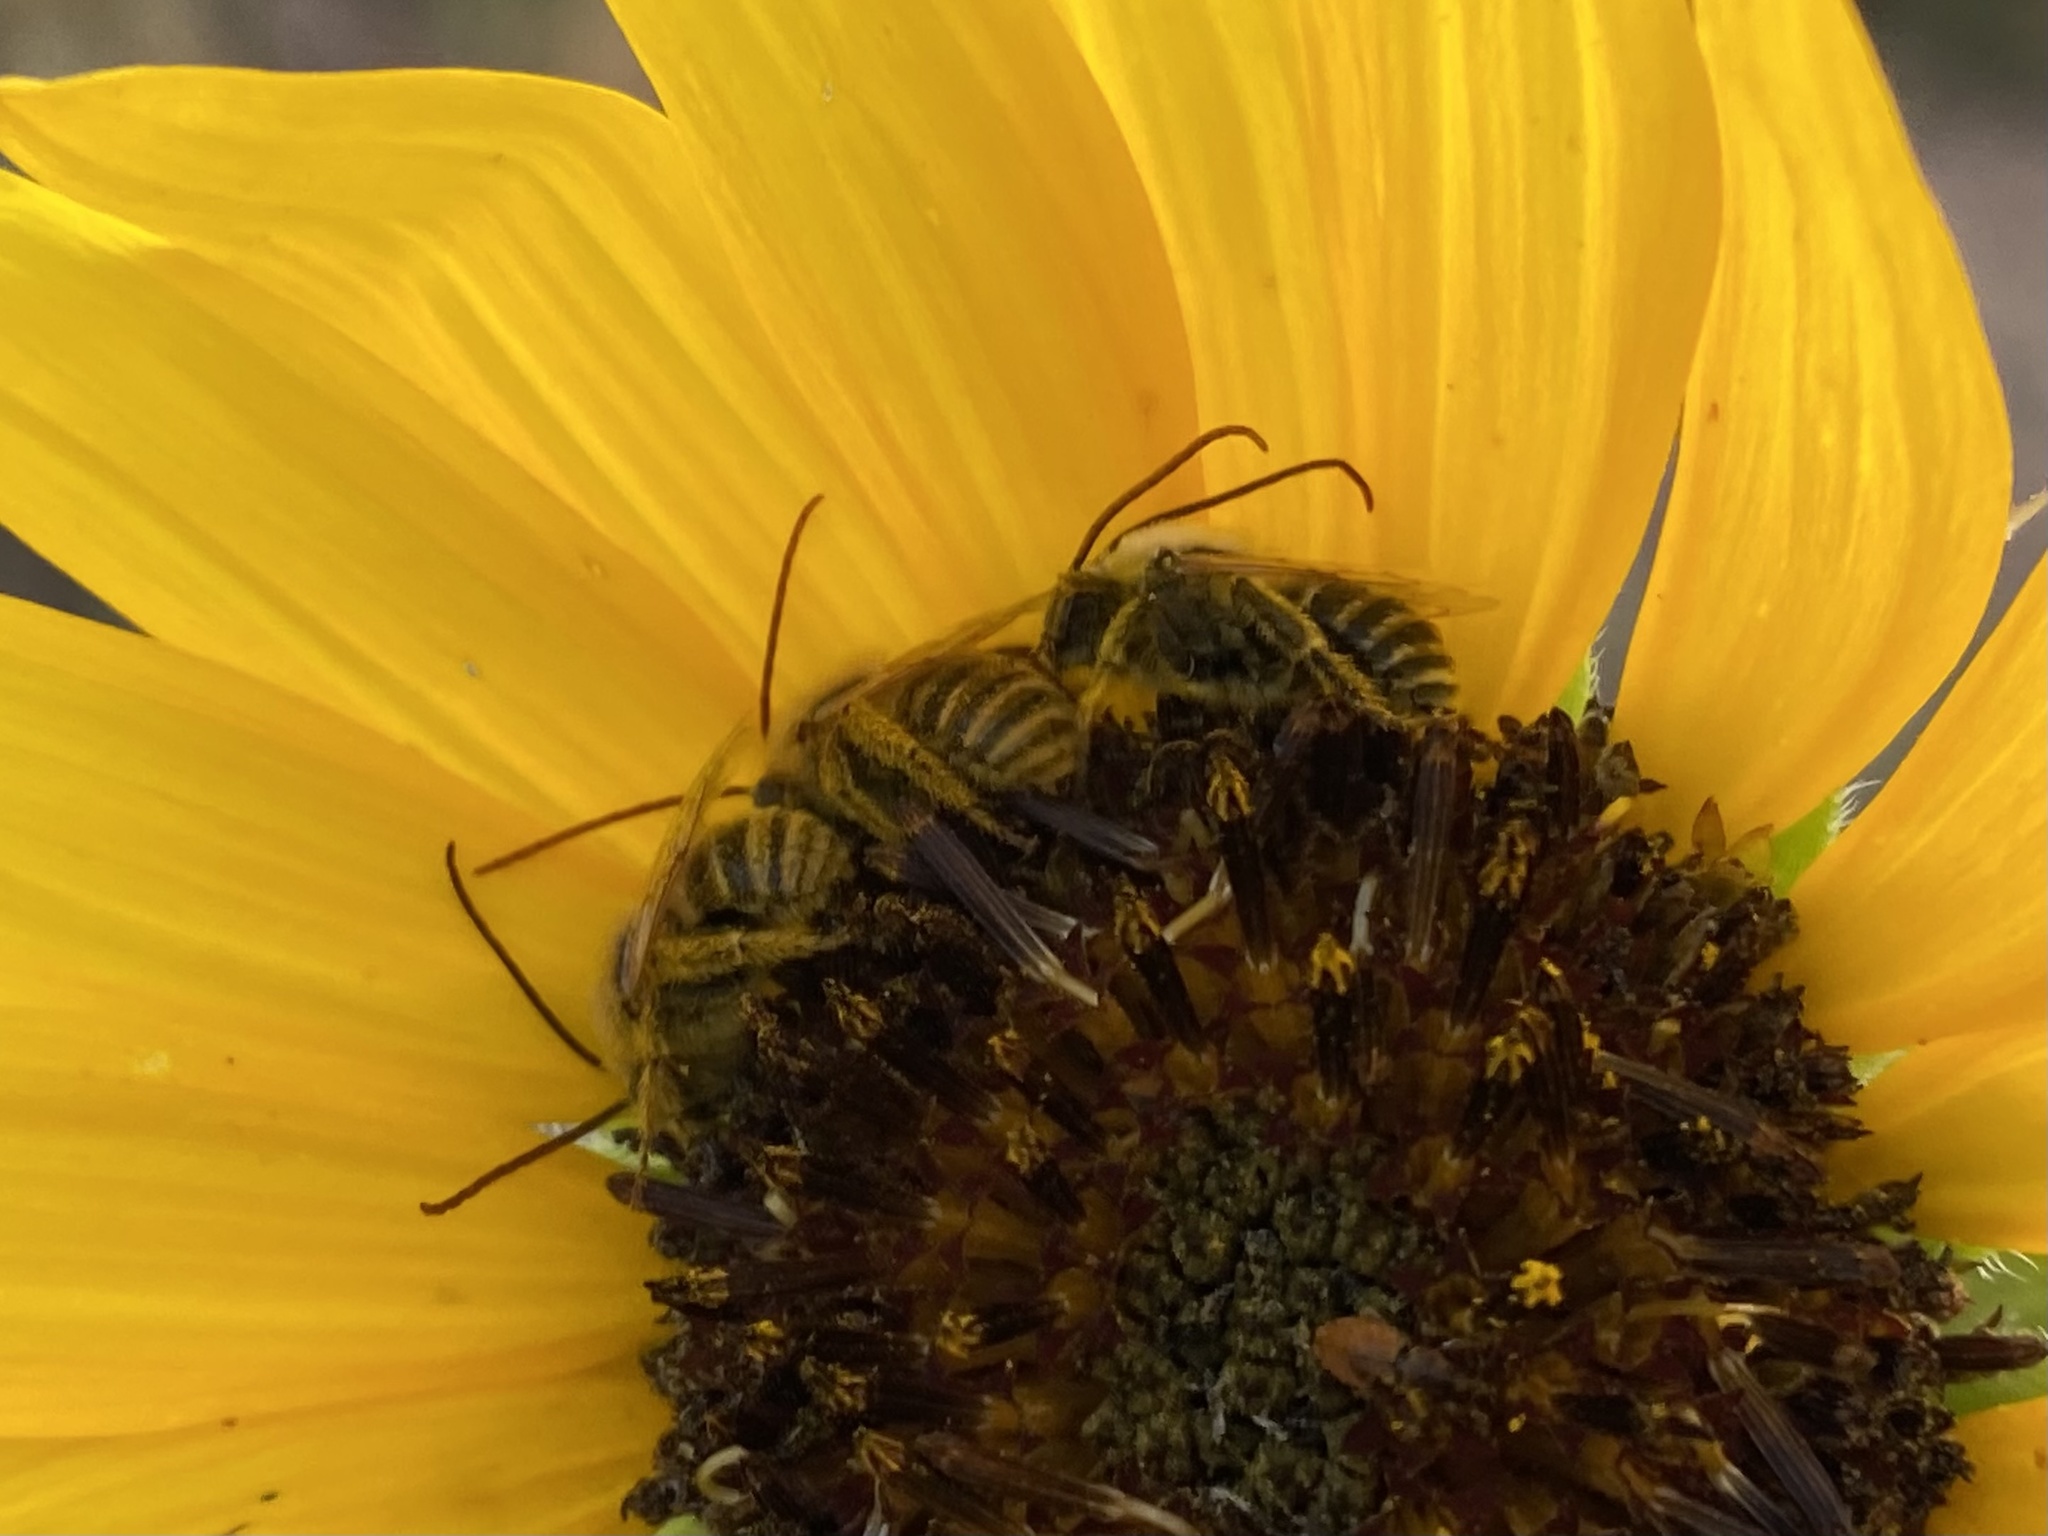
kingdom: Animalia
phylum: Arthropoda
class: Insecta
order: Hymenoptera
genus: Eumelissodes
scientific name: Eumelissodes
